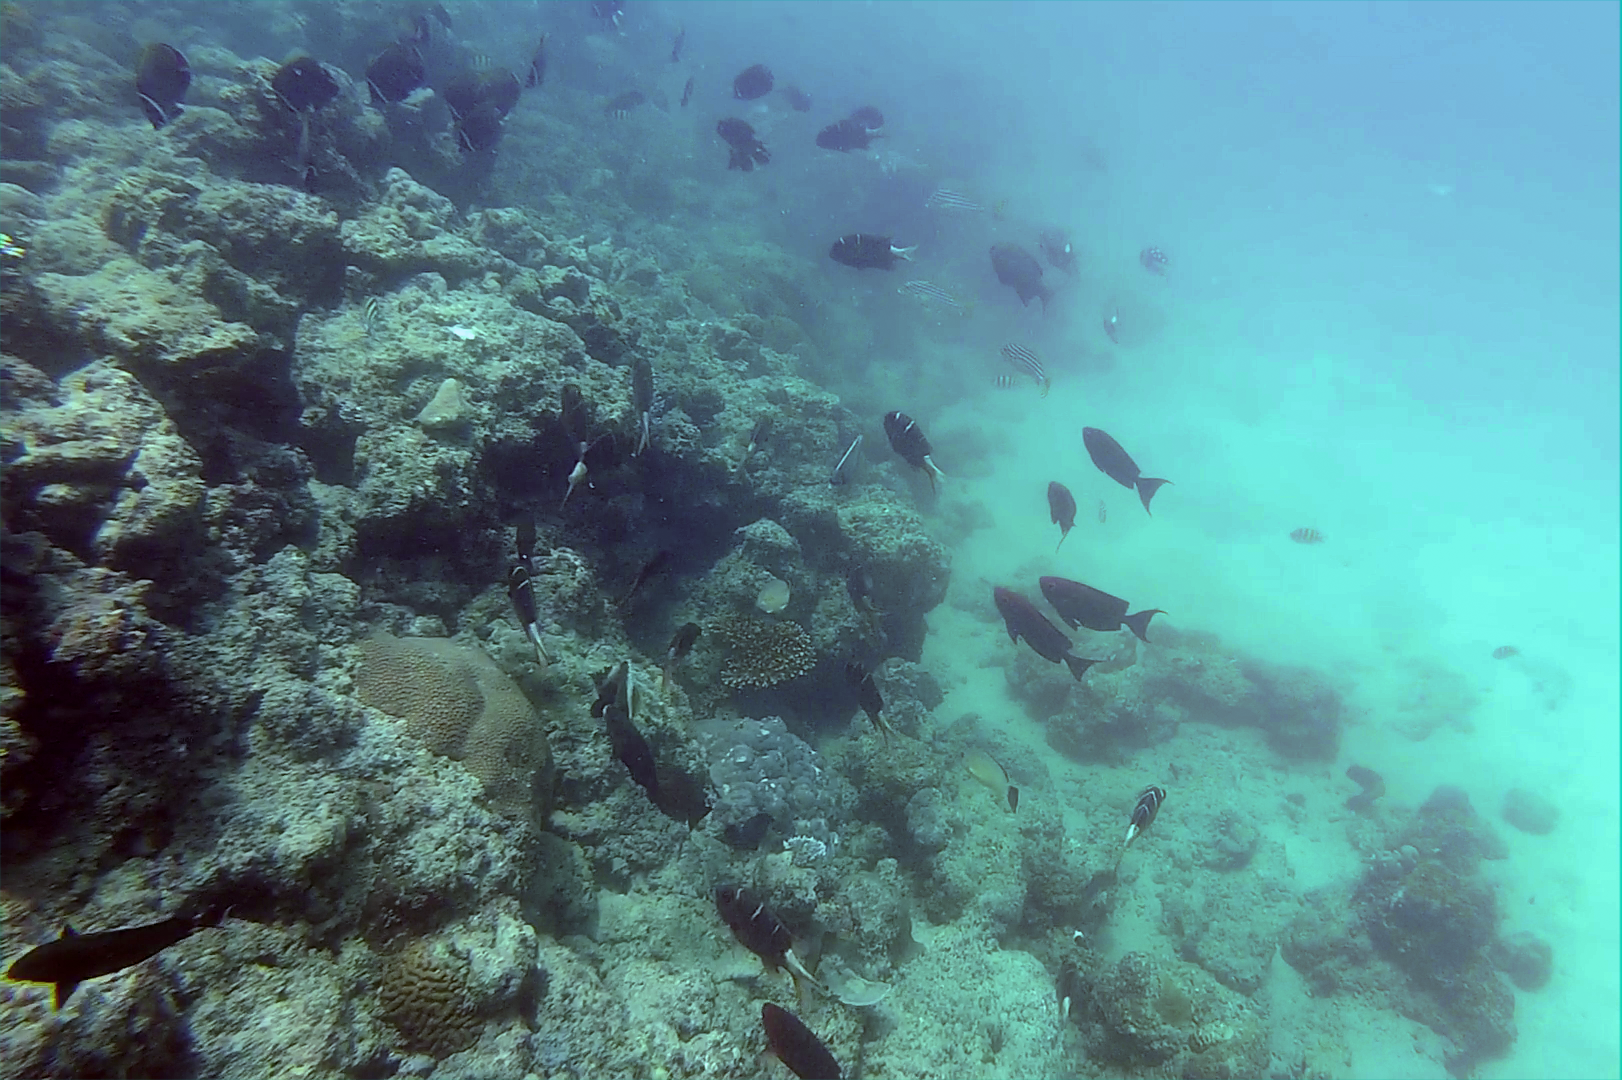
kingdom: Animalia
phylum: Chordata
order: Perciformes
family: Lethrinidae
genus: Monotaxis
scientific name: Monotaxis heterodon
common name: Redfin emperor
